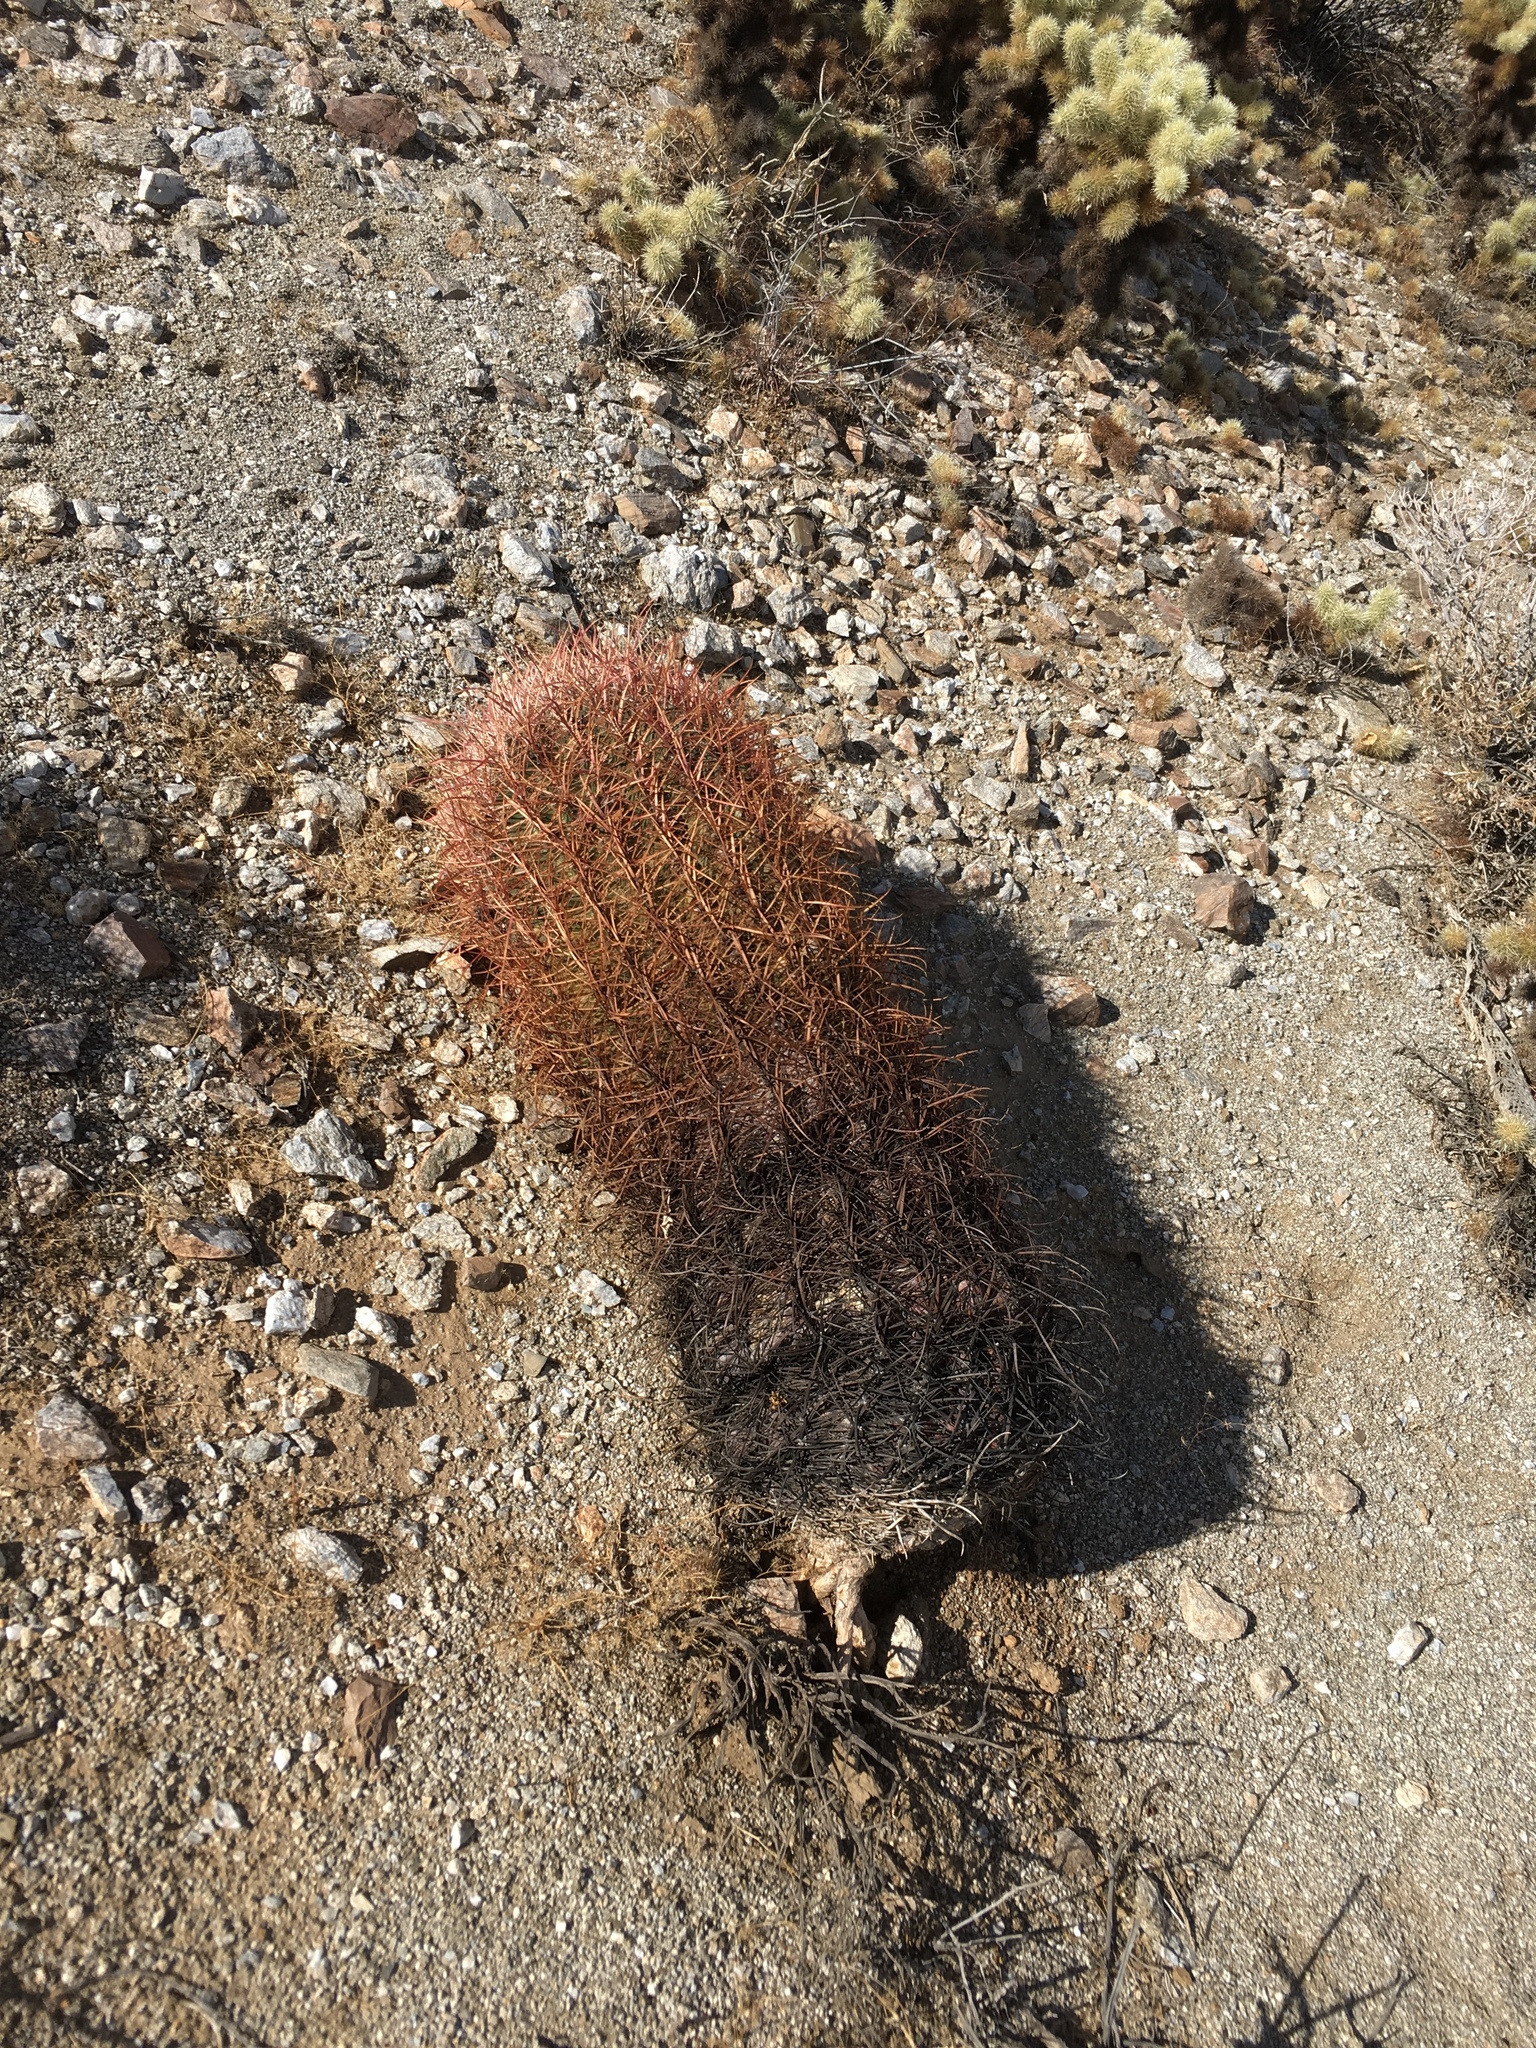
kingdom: Plantae
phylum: Tracheophyta
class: Magnoliopsida
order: Caryophyllales
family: Cactaceae
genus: Ferocactus
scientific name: Ferocactus cylindraceus
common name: California barrel cactus
